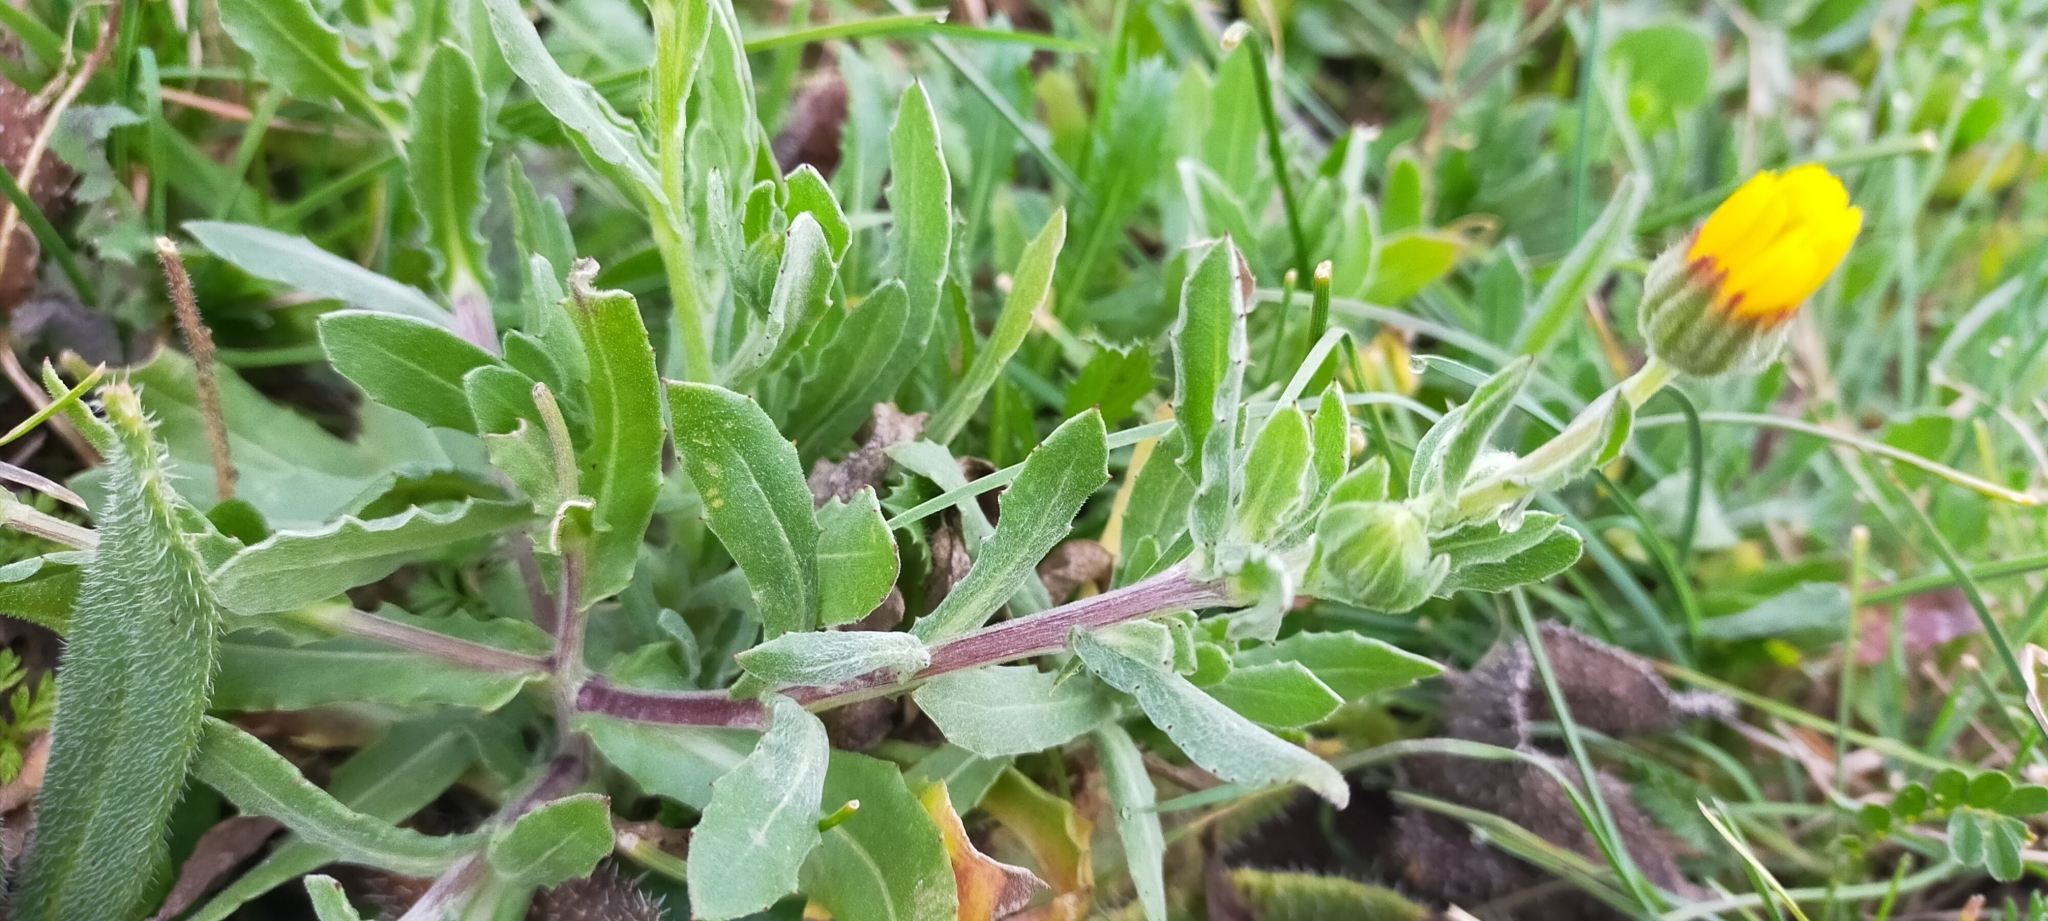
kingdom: Plantae
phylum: Tracheophyta
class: Magnoliopsida
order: Asterales
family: Asteraceae
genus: Calendula
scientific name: Calendula arvensis
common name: Field marigold
